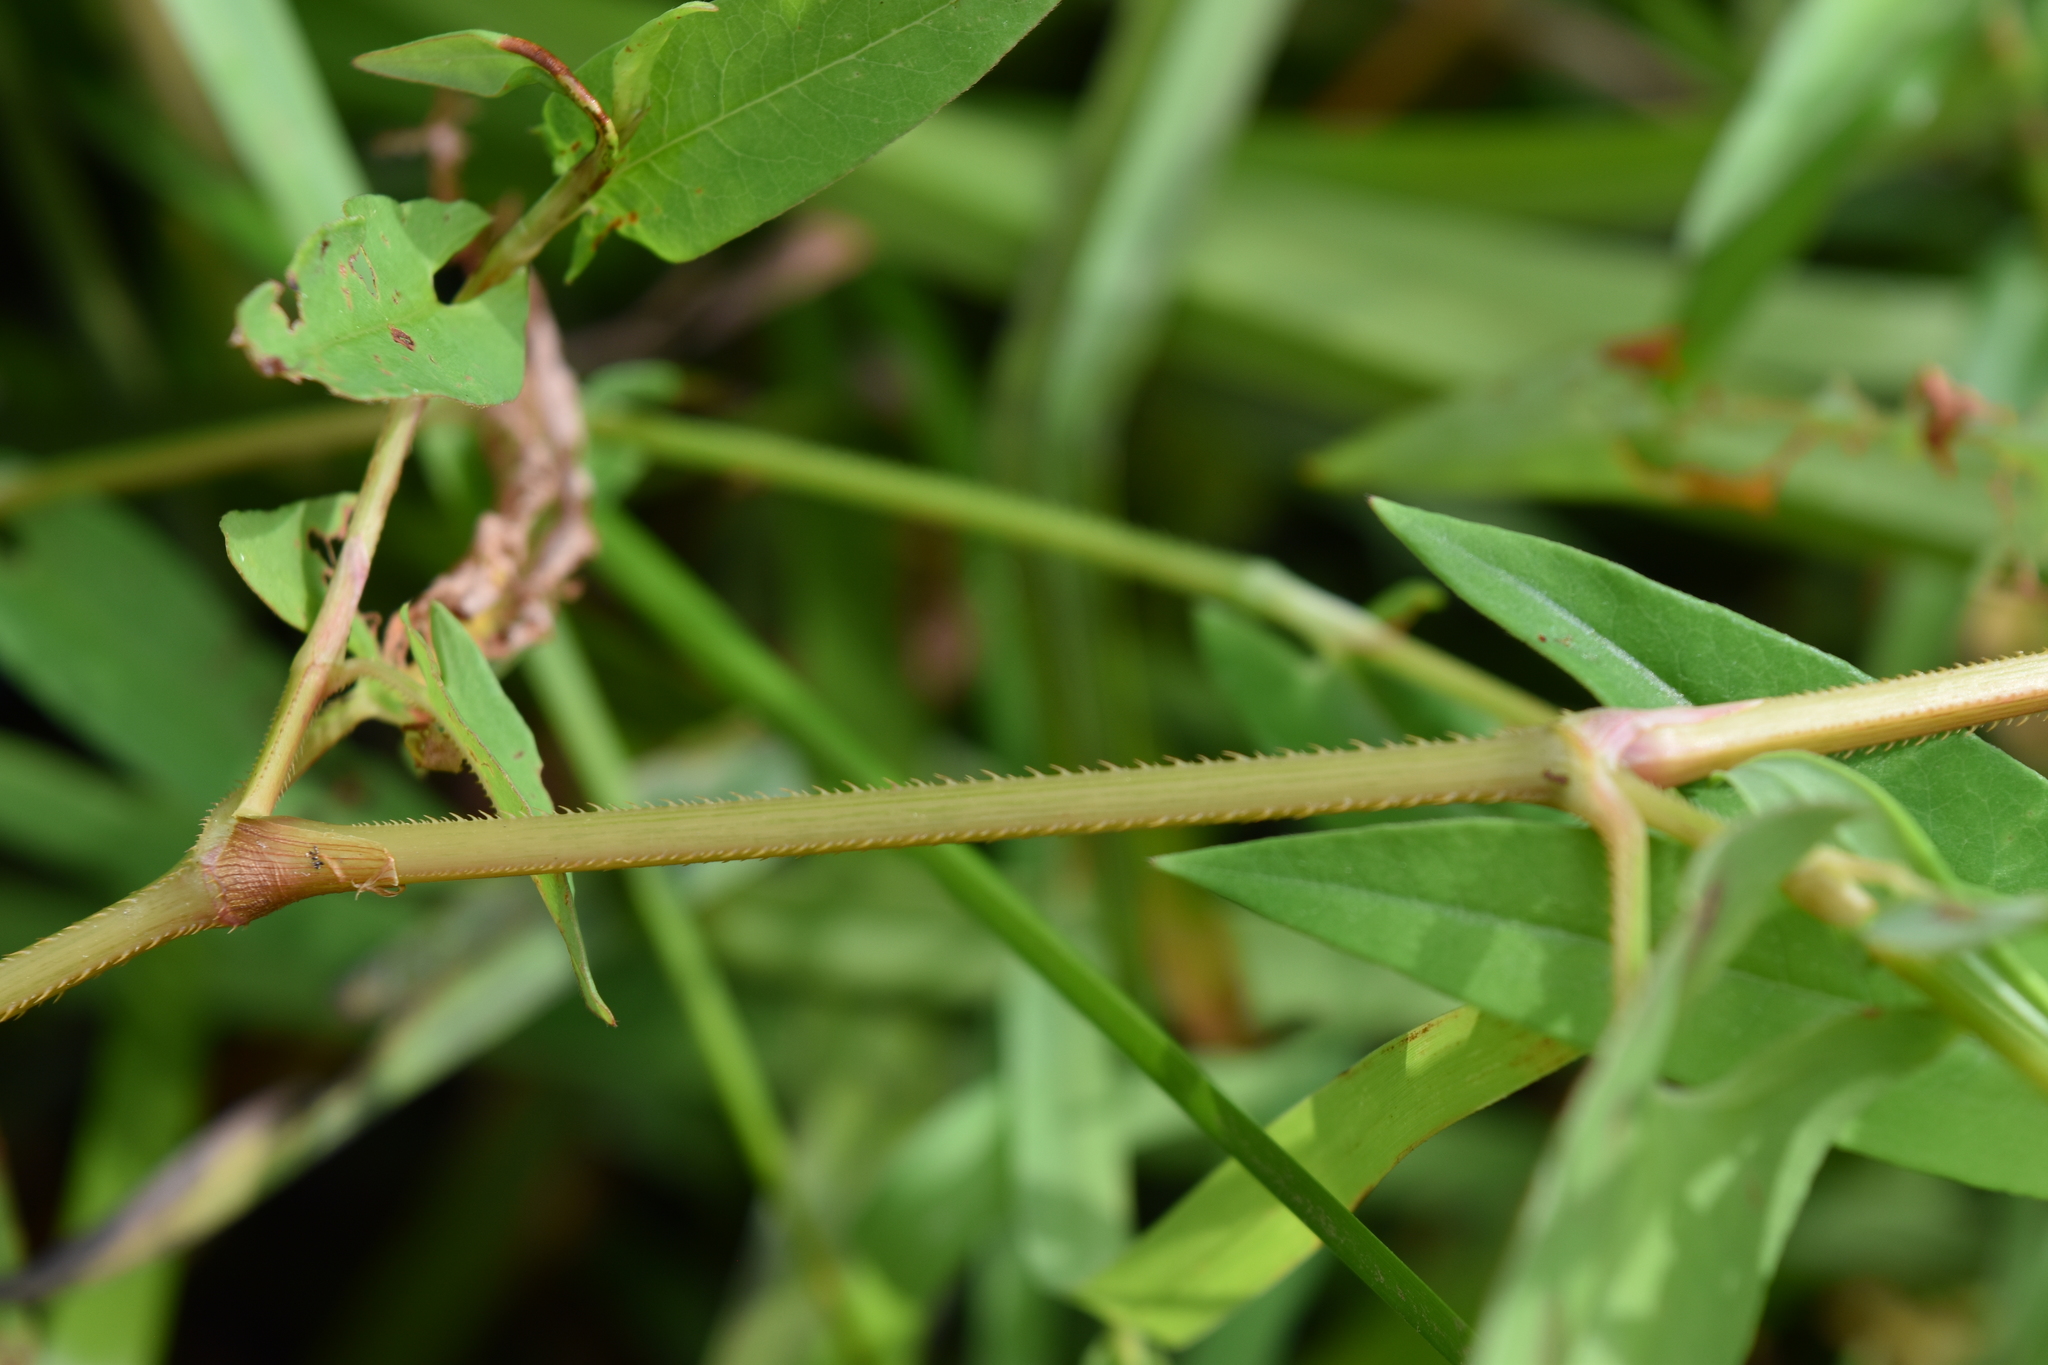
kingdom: Plantae
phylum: Tracheophyta
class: Magnoliopsida
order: Caryophyllales
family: Polygonaceae
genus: Persicaria
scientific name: Persicaria sagittata
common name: American tearthumb
